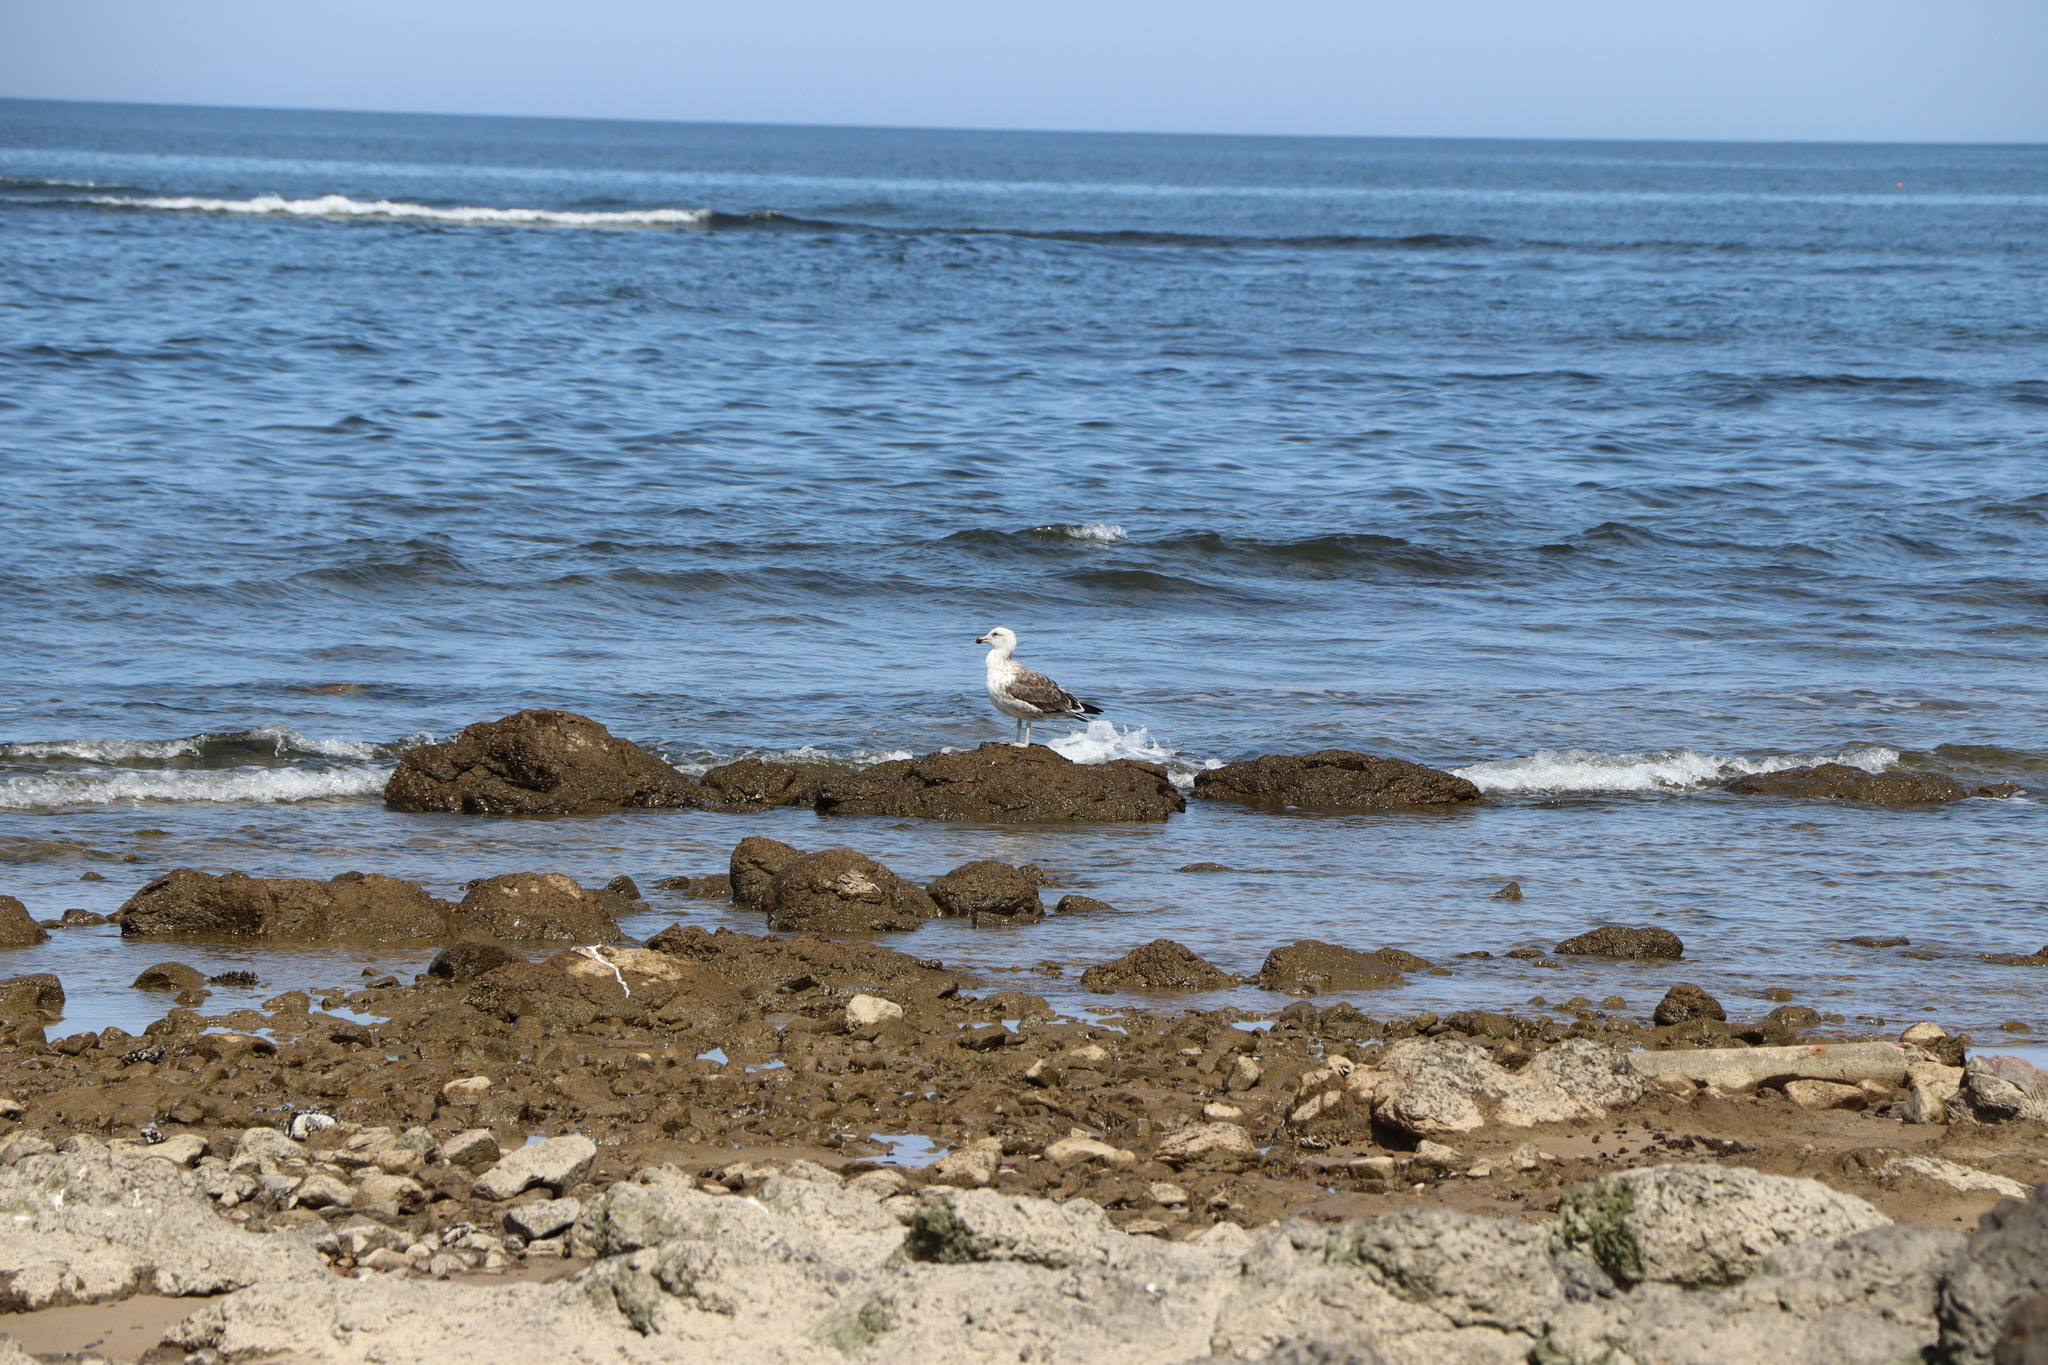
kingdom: Animalia
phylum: Chordata
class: Aves
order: Charadriiformes
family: Laridae
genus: Larus
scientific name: Larus dominicanus
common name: Kelp gull
